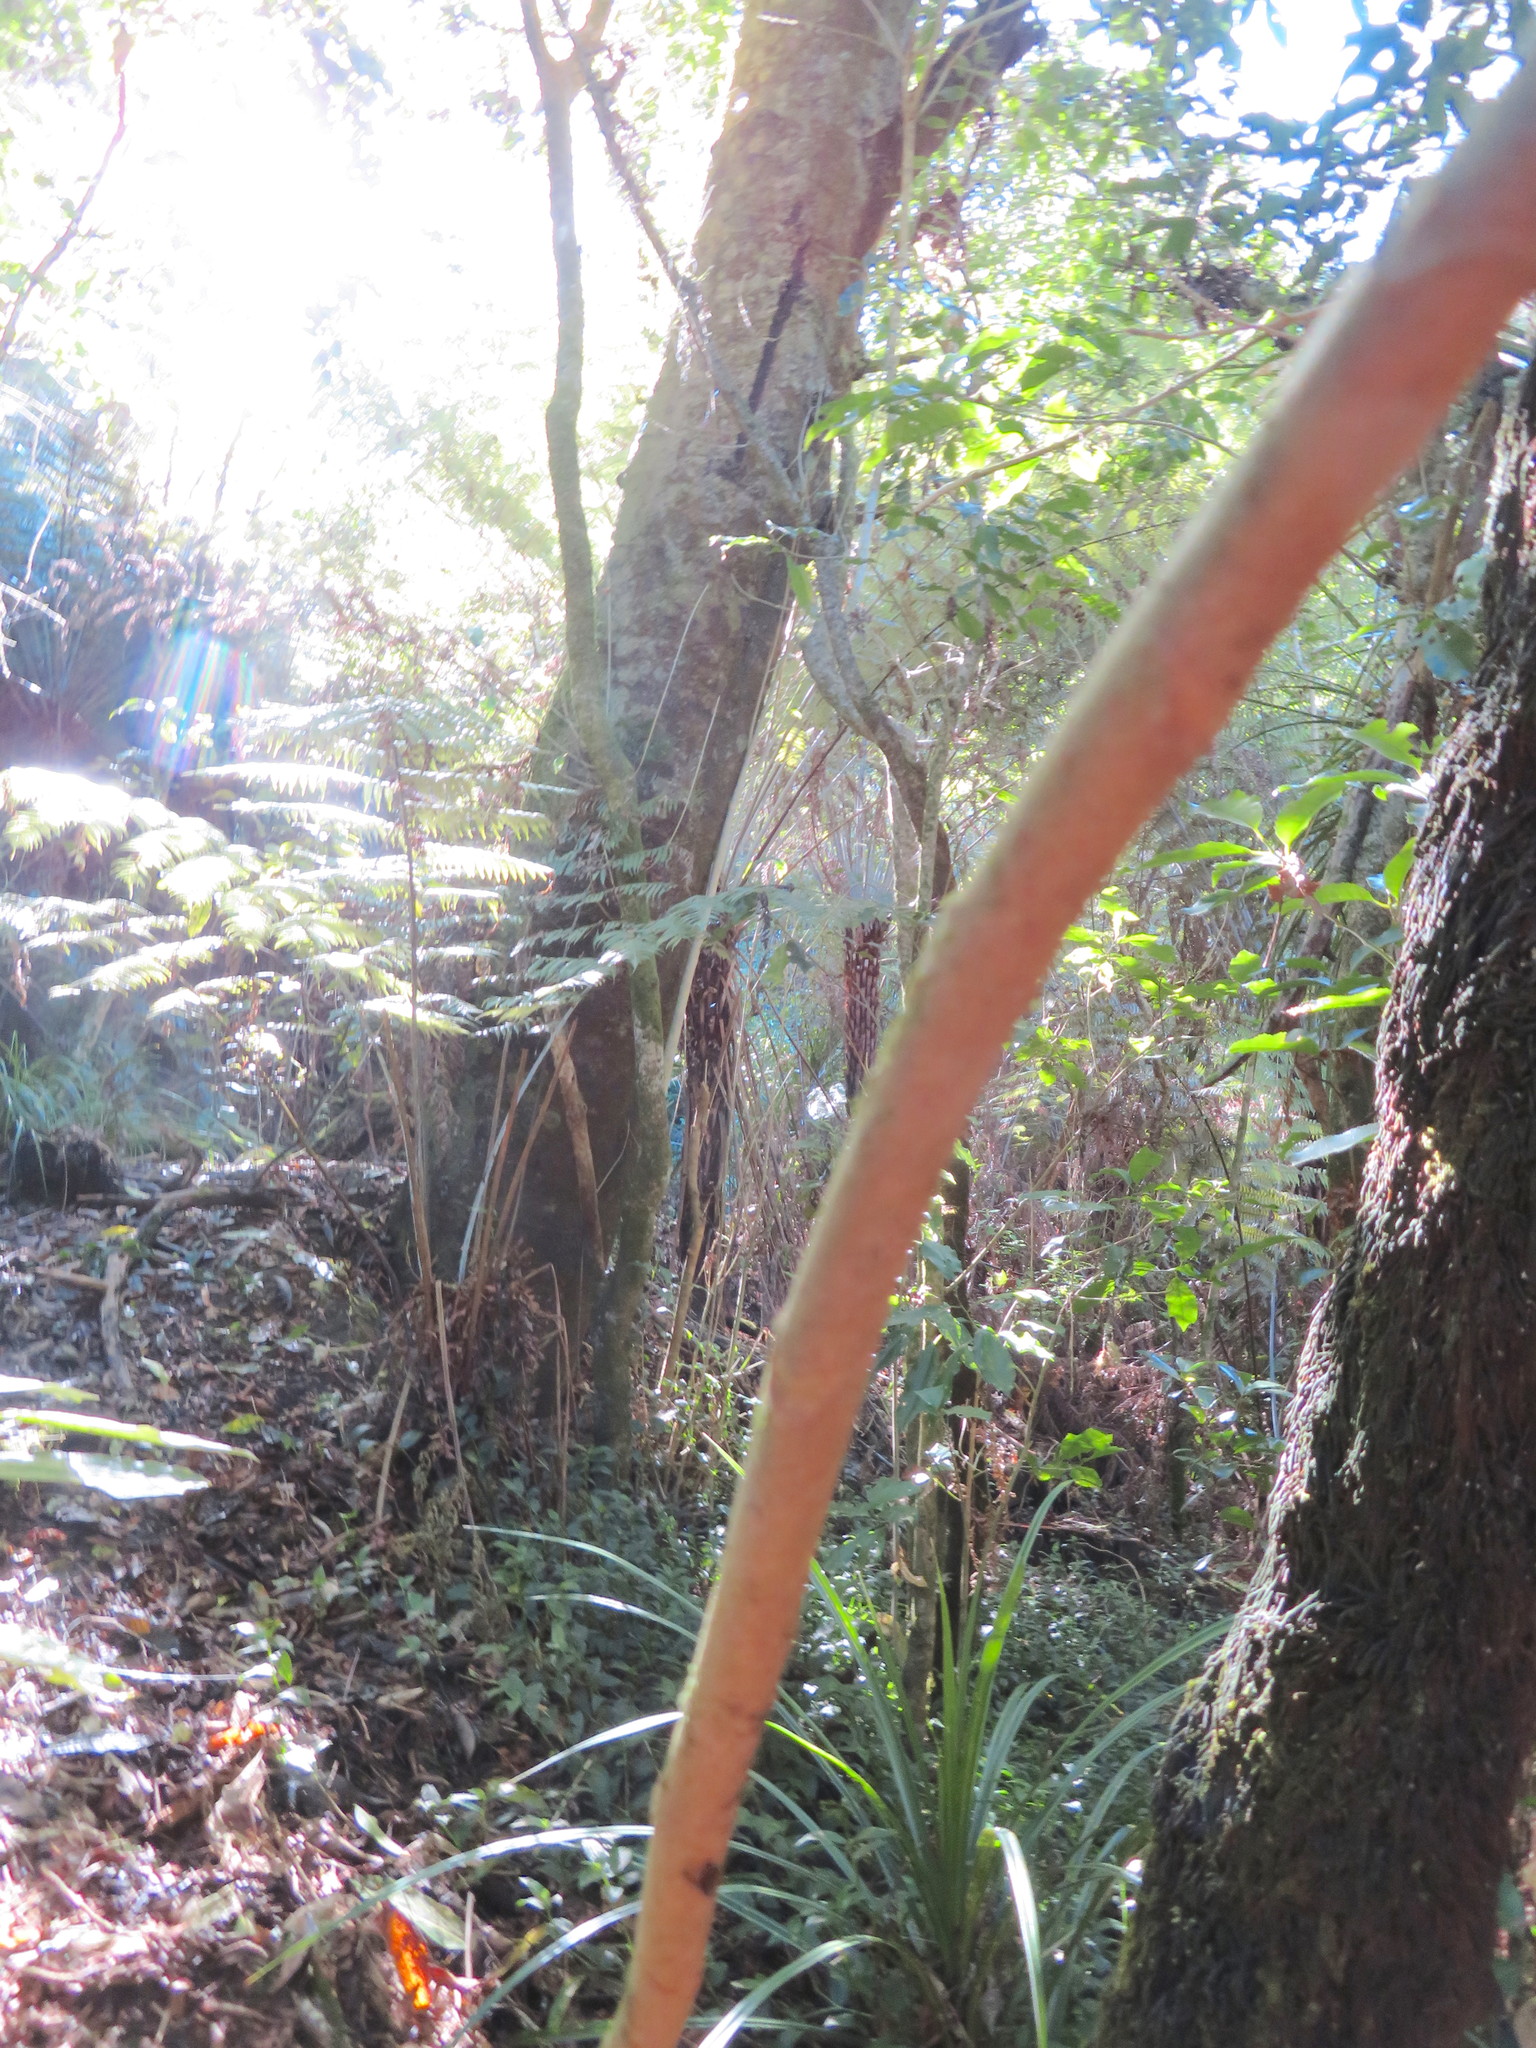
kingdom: Plantae
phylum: Tracheophyta
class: Liliopsida
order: Commelinales
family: Commelinaceae
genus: Tradescantia
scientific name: Tradescantia fluminensis
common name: Wandering-jew
